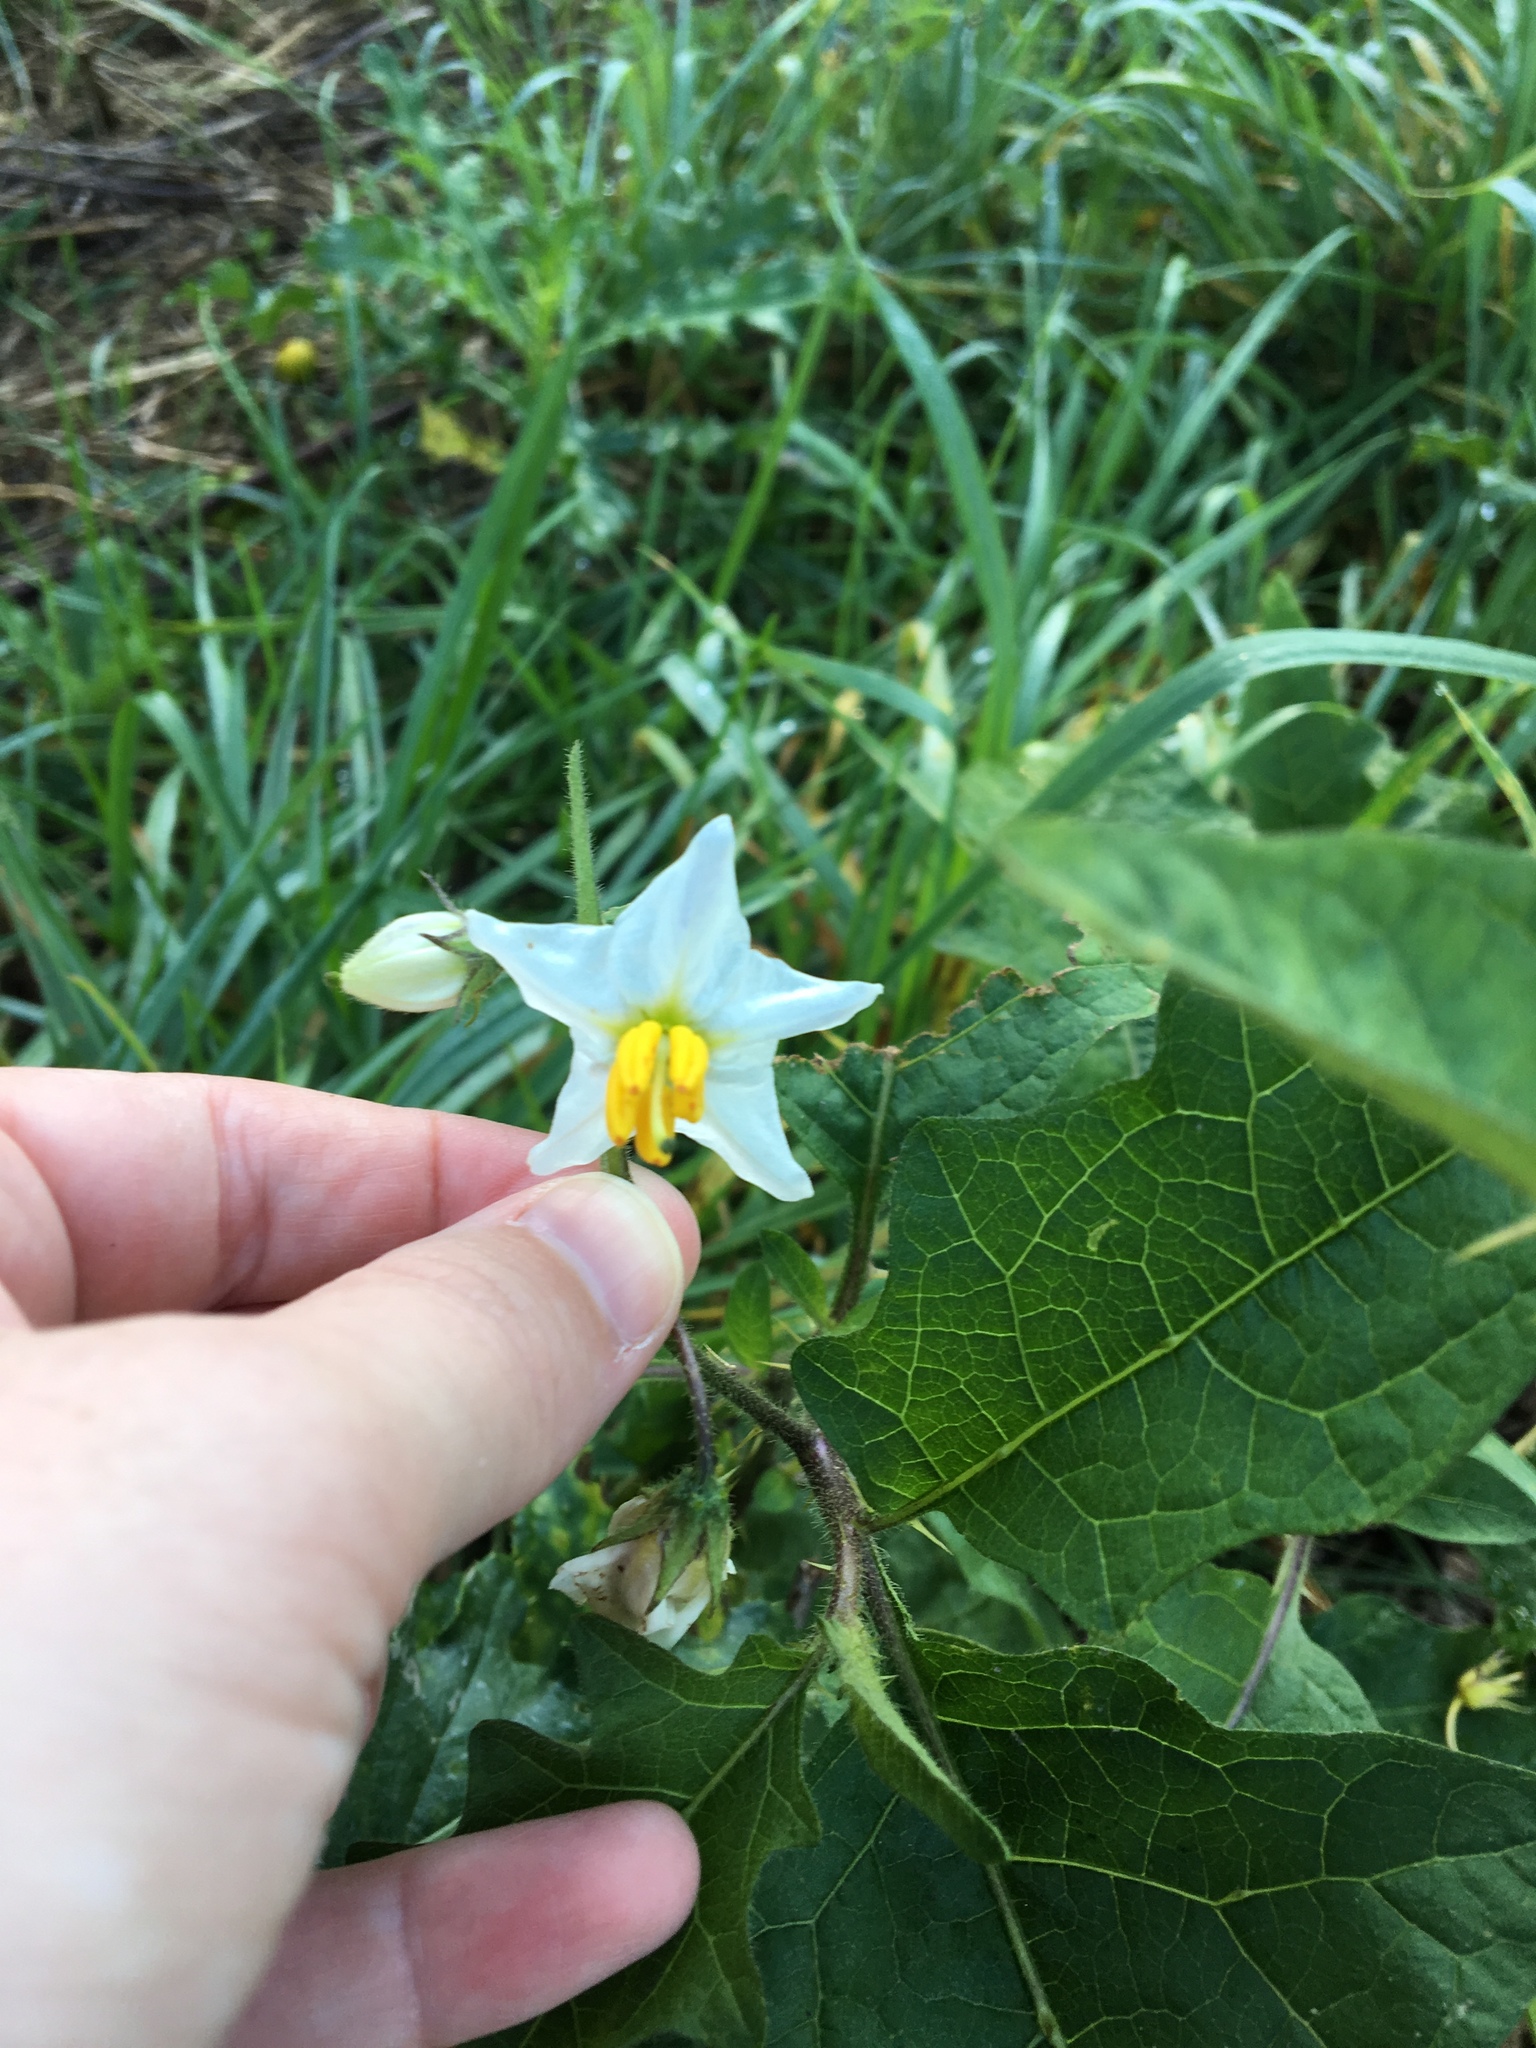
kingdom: Plantae
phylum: Tracheophyta
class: Magnoliopsida
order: Solanales
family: Solanaceae
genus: Solanum
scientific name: Solanum carolinense
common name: Horse-nettle
